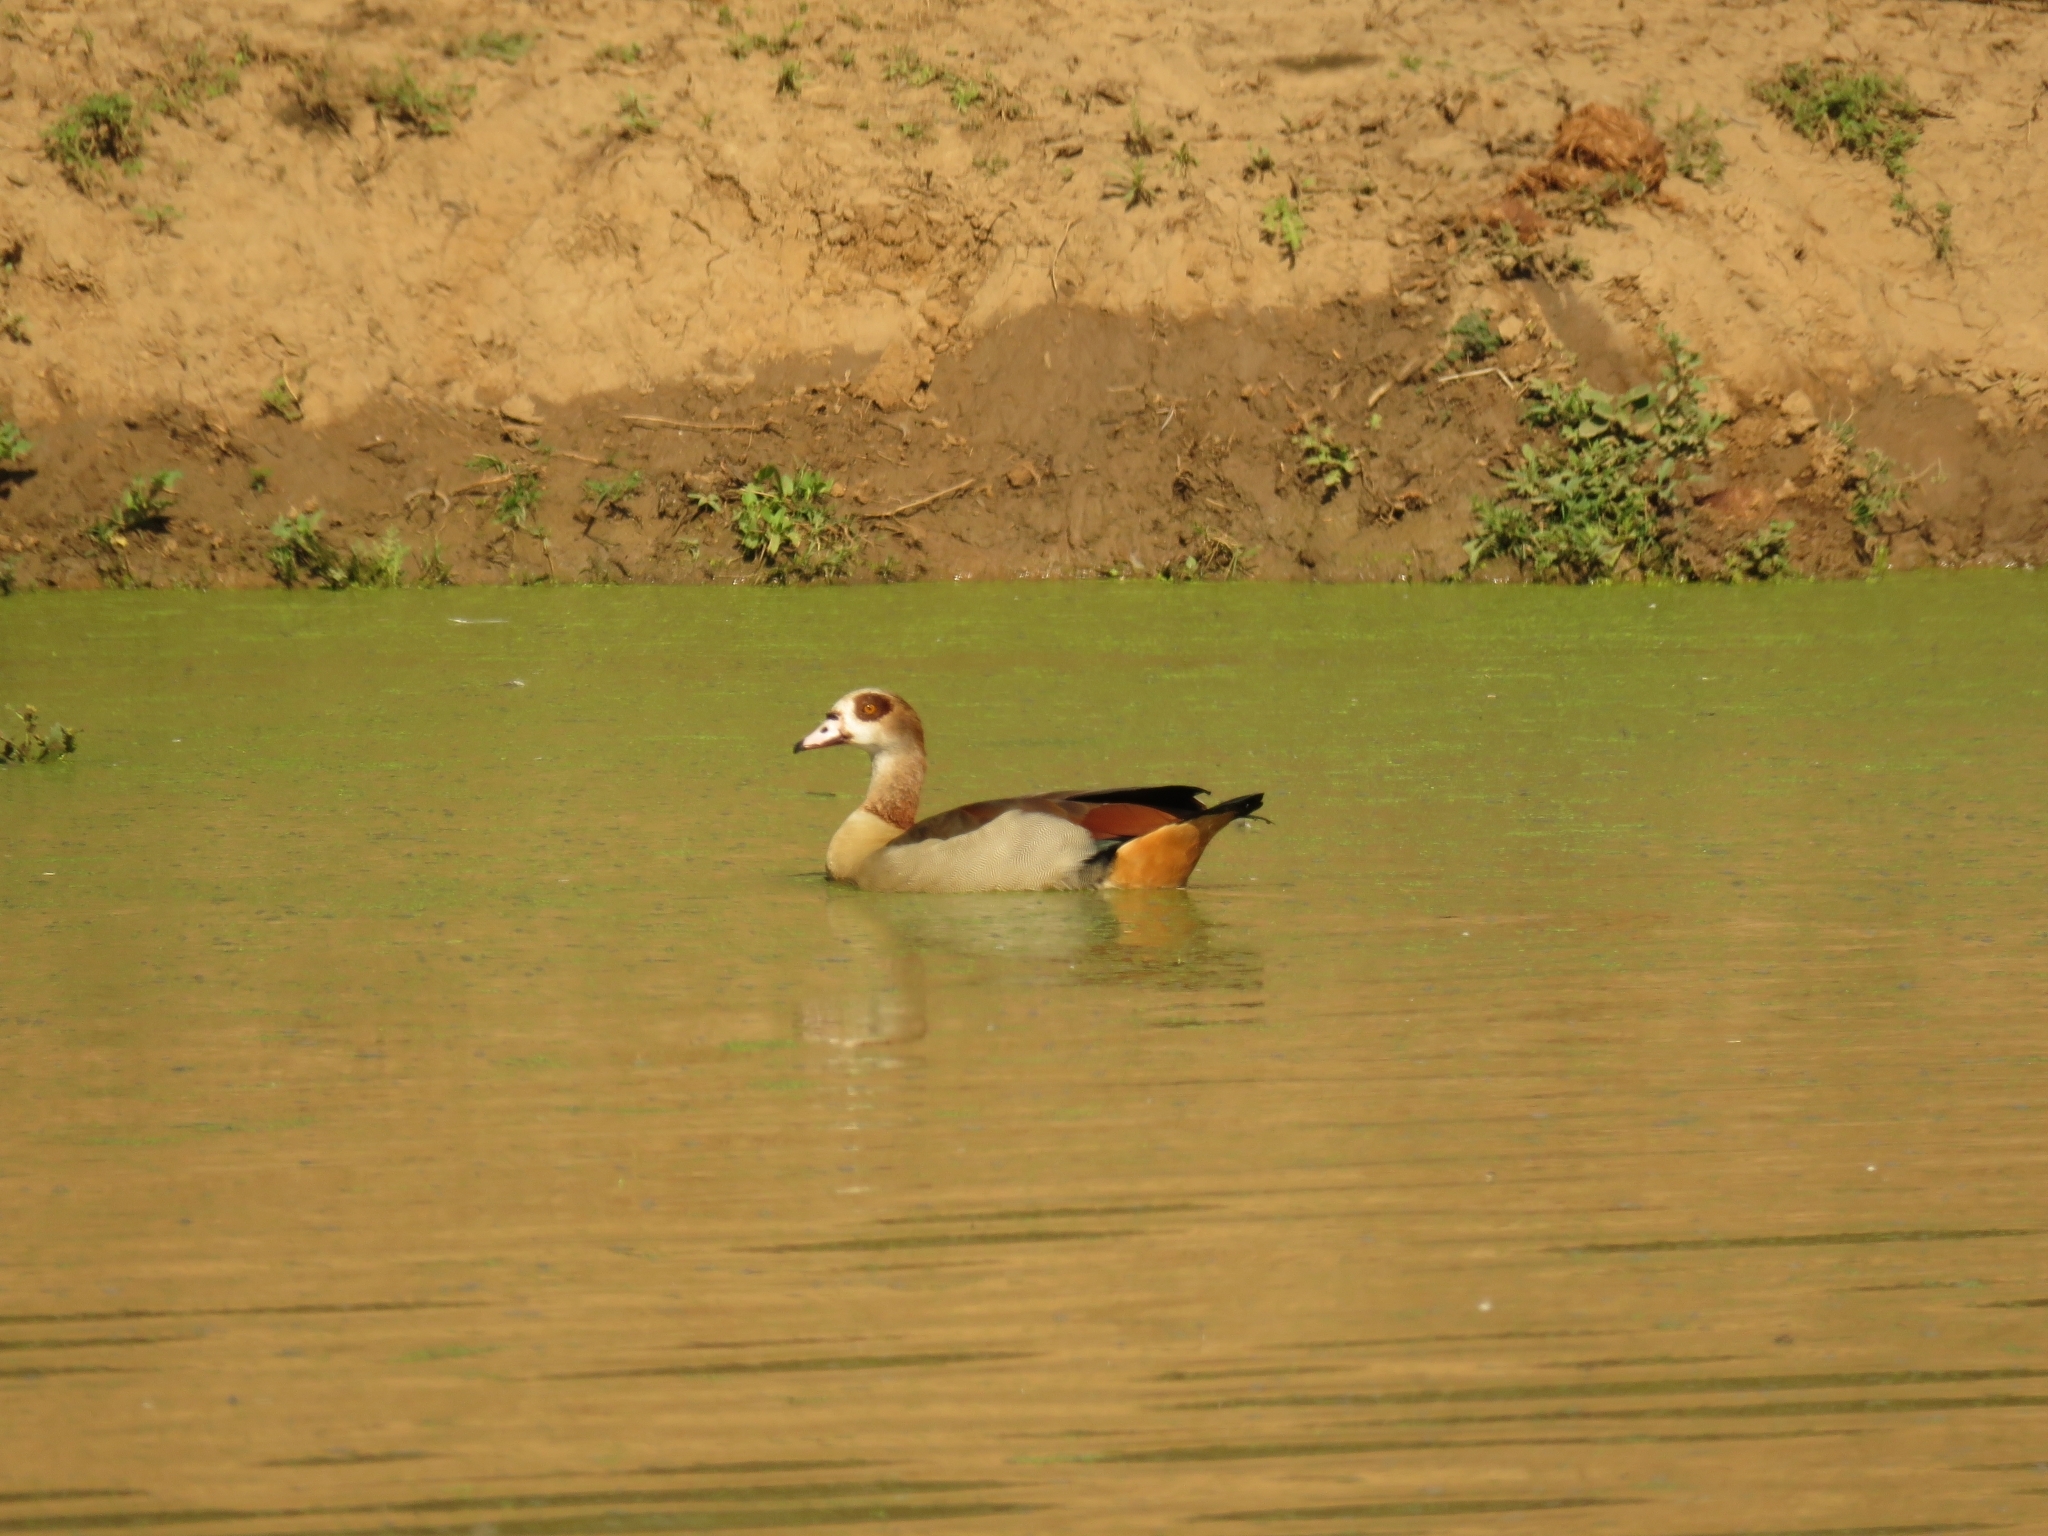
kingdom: Animalia
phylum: Chordata
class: Aves
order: Anseriformes
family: Anatidae
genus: Alopochen
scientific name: Alopochen aegyptiaca
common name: Egyptian goose
